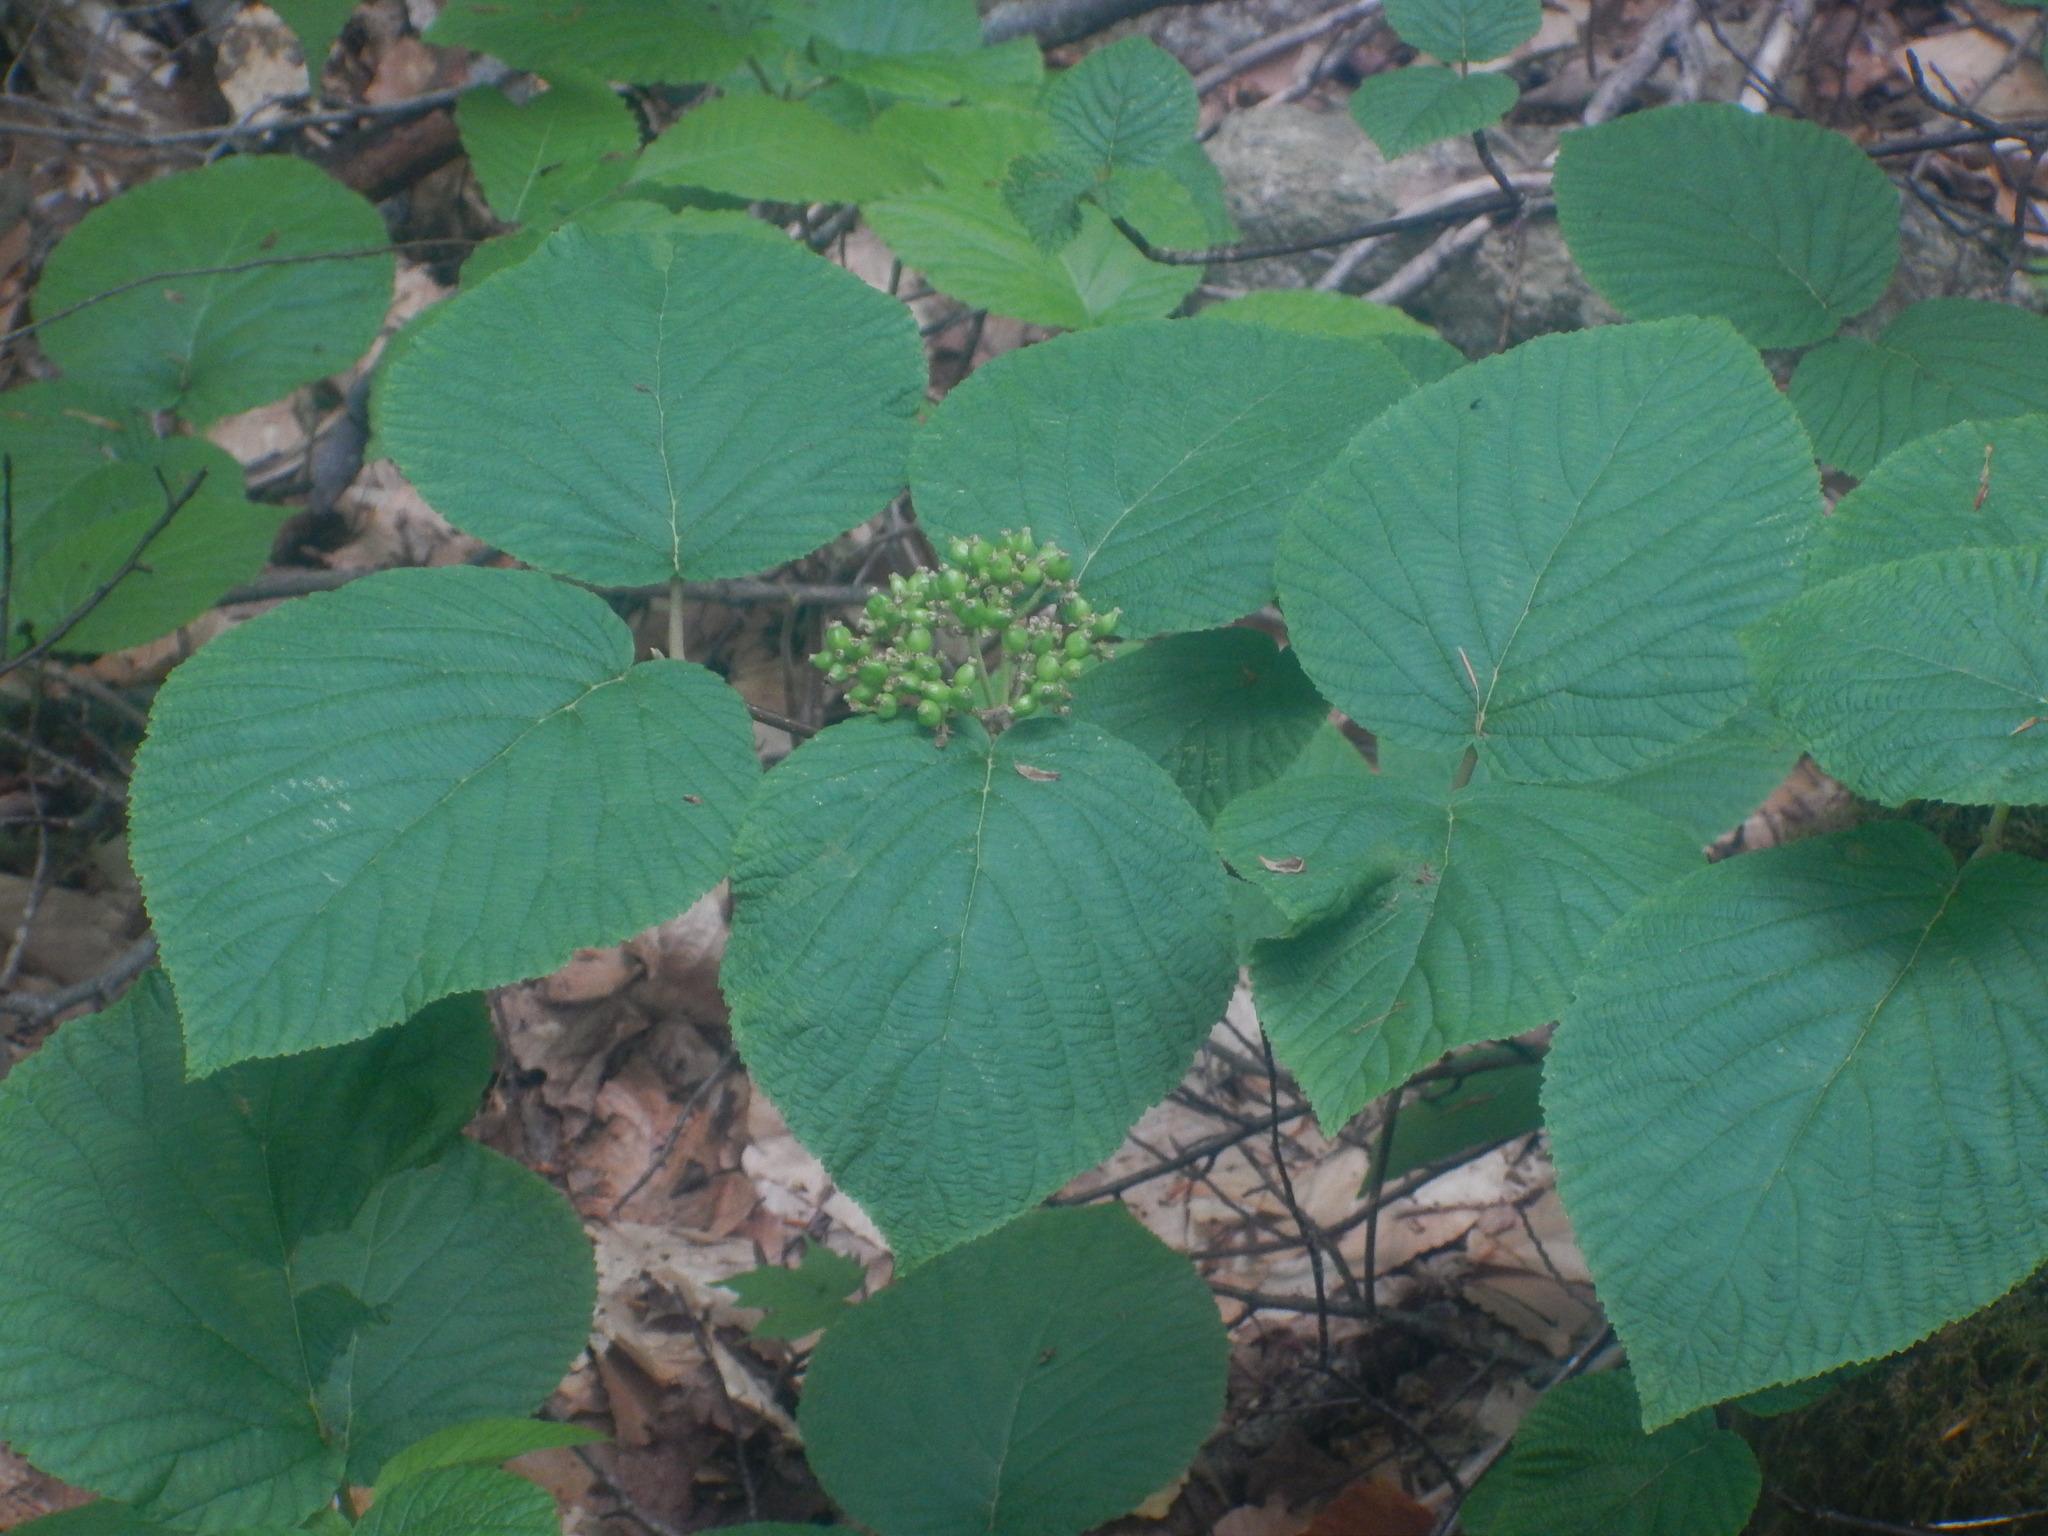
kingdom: Plantae
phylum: Tracheophyta
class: Magnoliopsida
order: Dipsacales
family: Viburnaceae
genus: Viburnum
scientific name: Viburnum lantanoides
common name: Hobblebush
